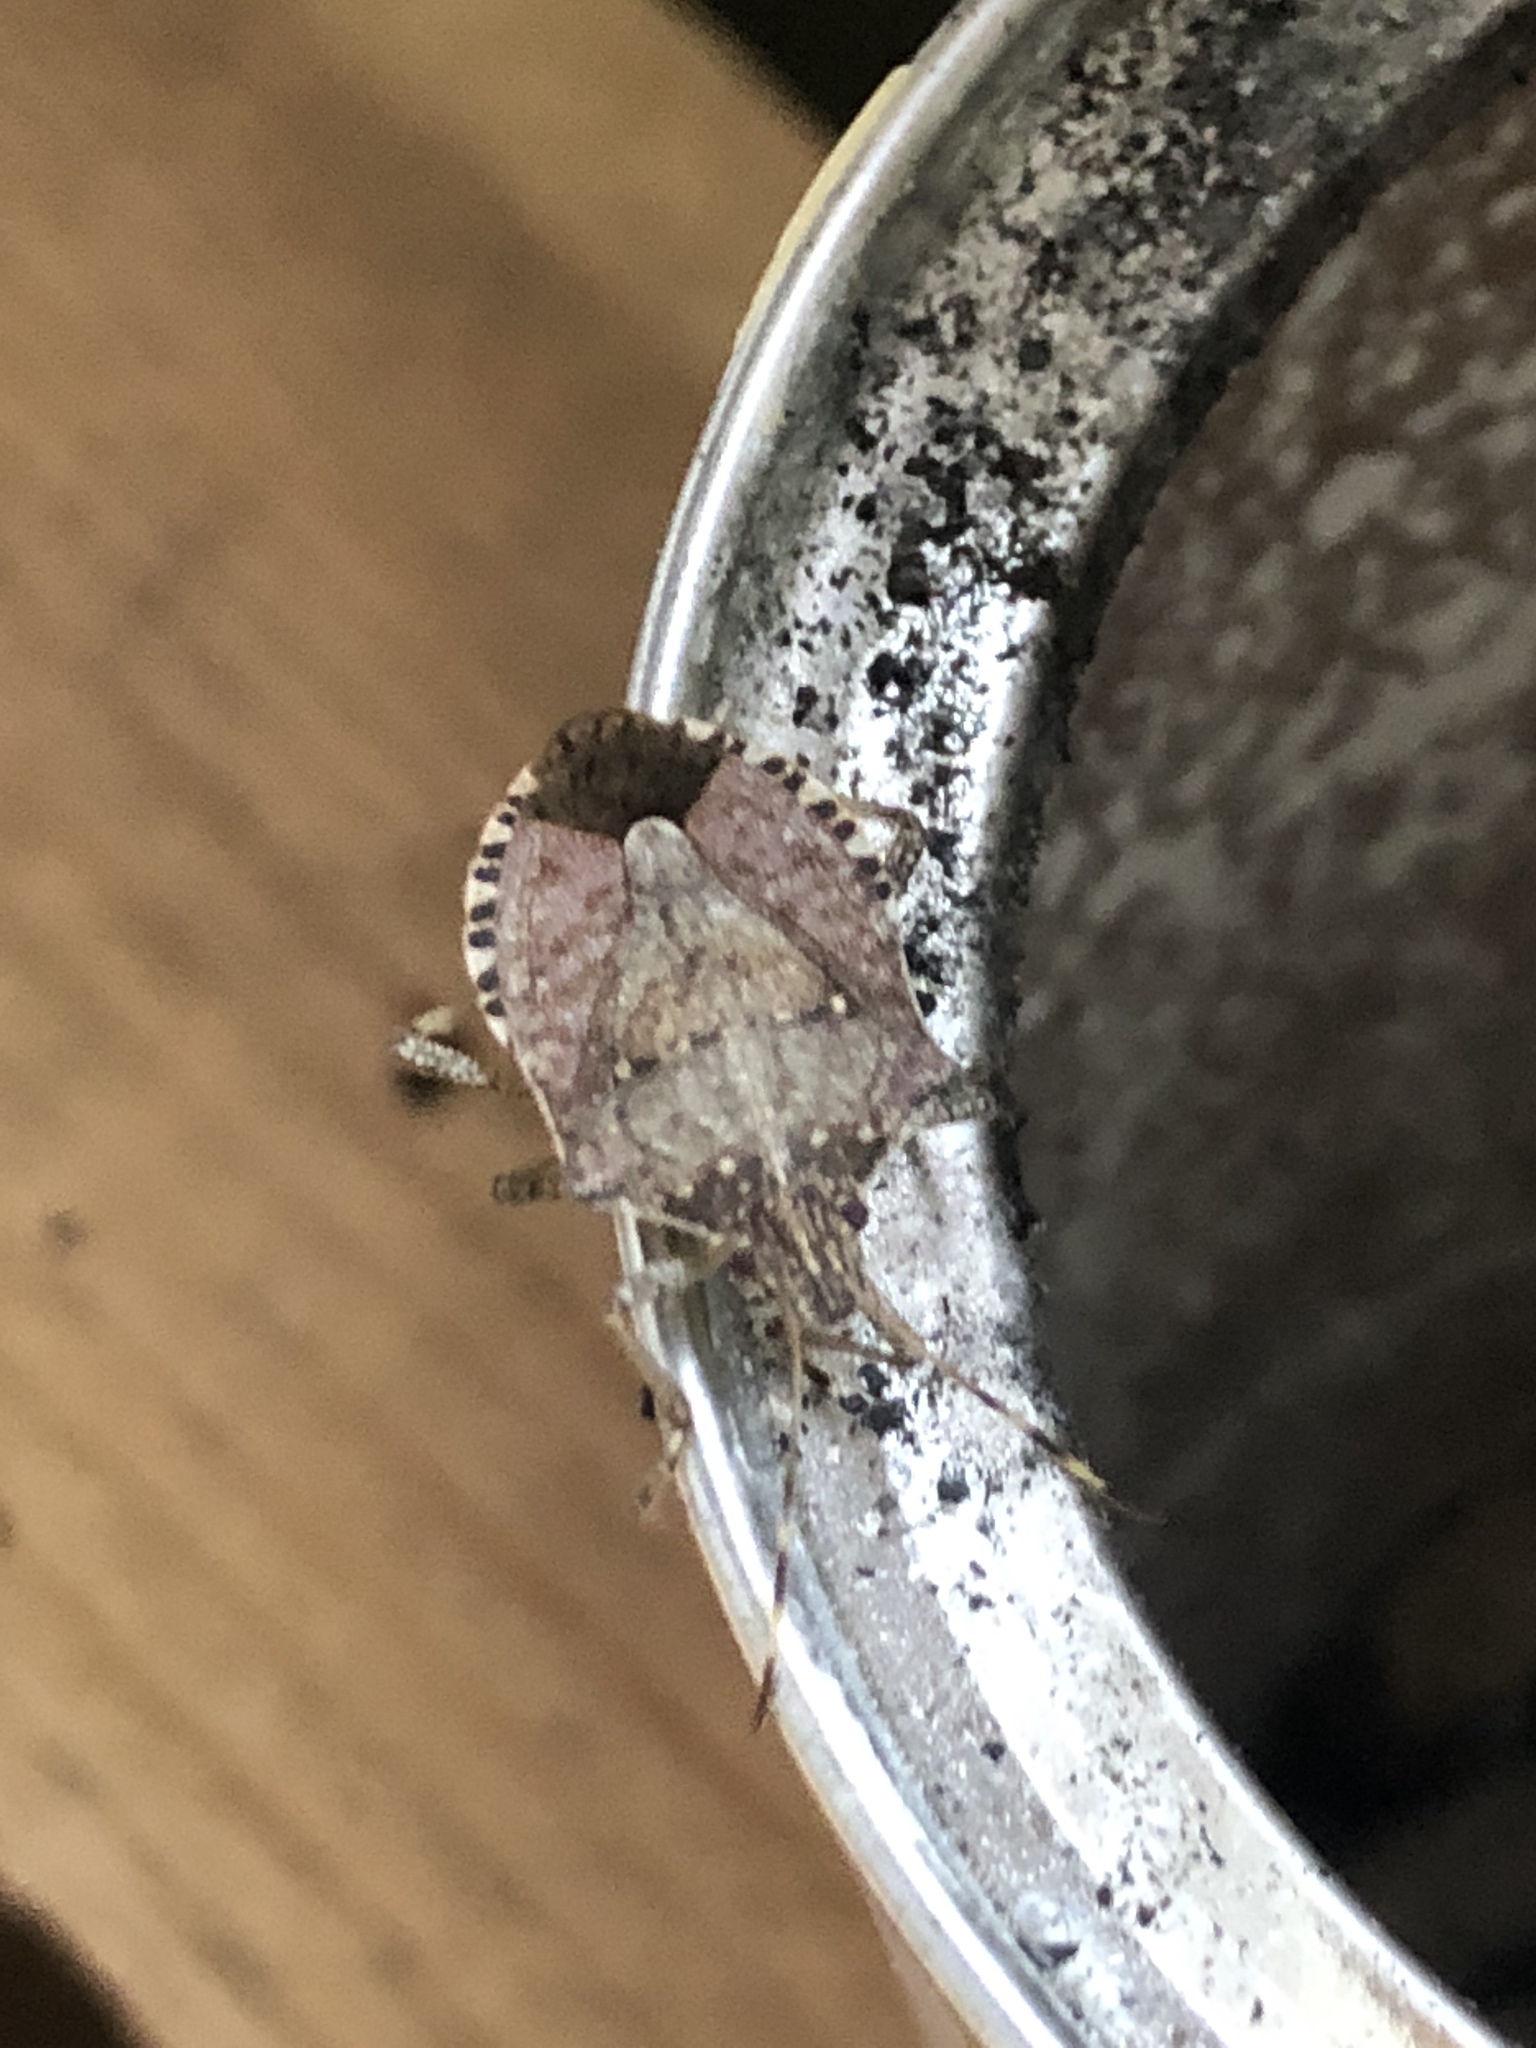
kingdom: Animalia
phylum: Arthropoda
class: Insecta
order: Hemiptera
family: Pentatomidae
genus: Halyomorpha
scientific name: Halyomorpha halys
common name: Brown marmorated stink bug
